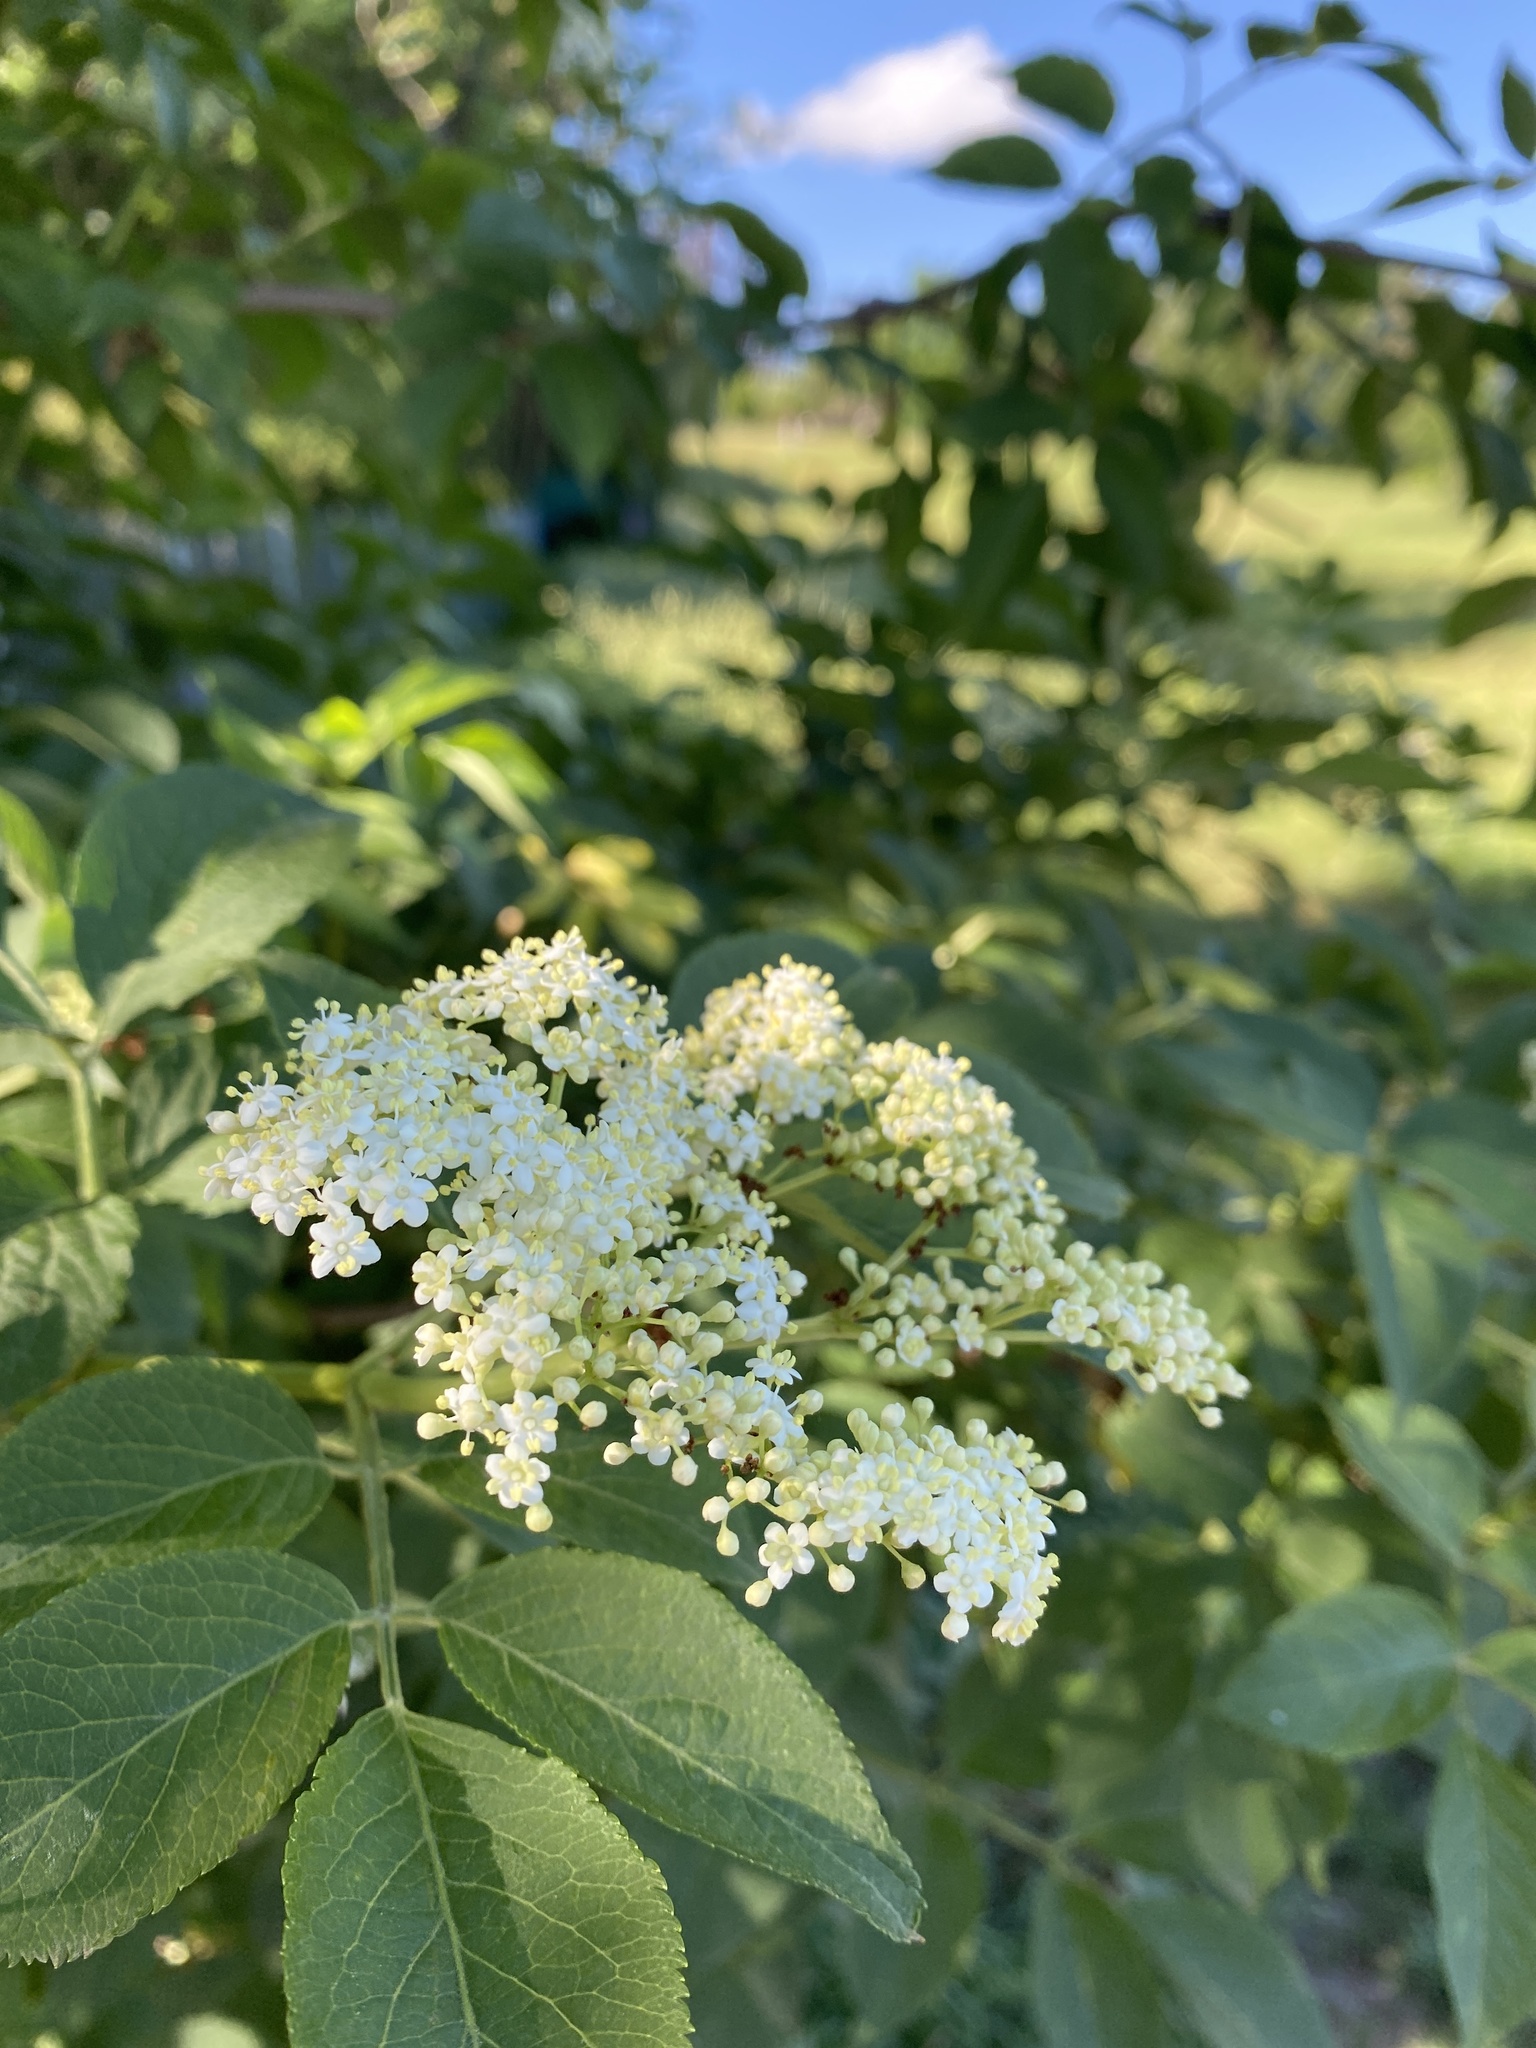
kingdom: Plantae
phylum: Tracheophyta
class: Magnoliopsida
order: Dipsacales
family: Viburnaceae
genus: Sambucus
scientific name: Sambucus nigra
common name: Elder
